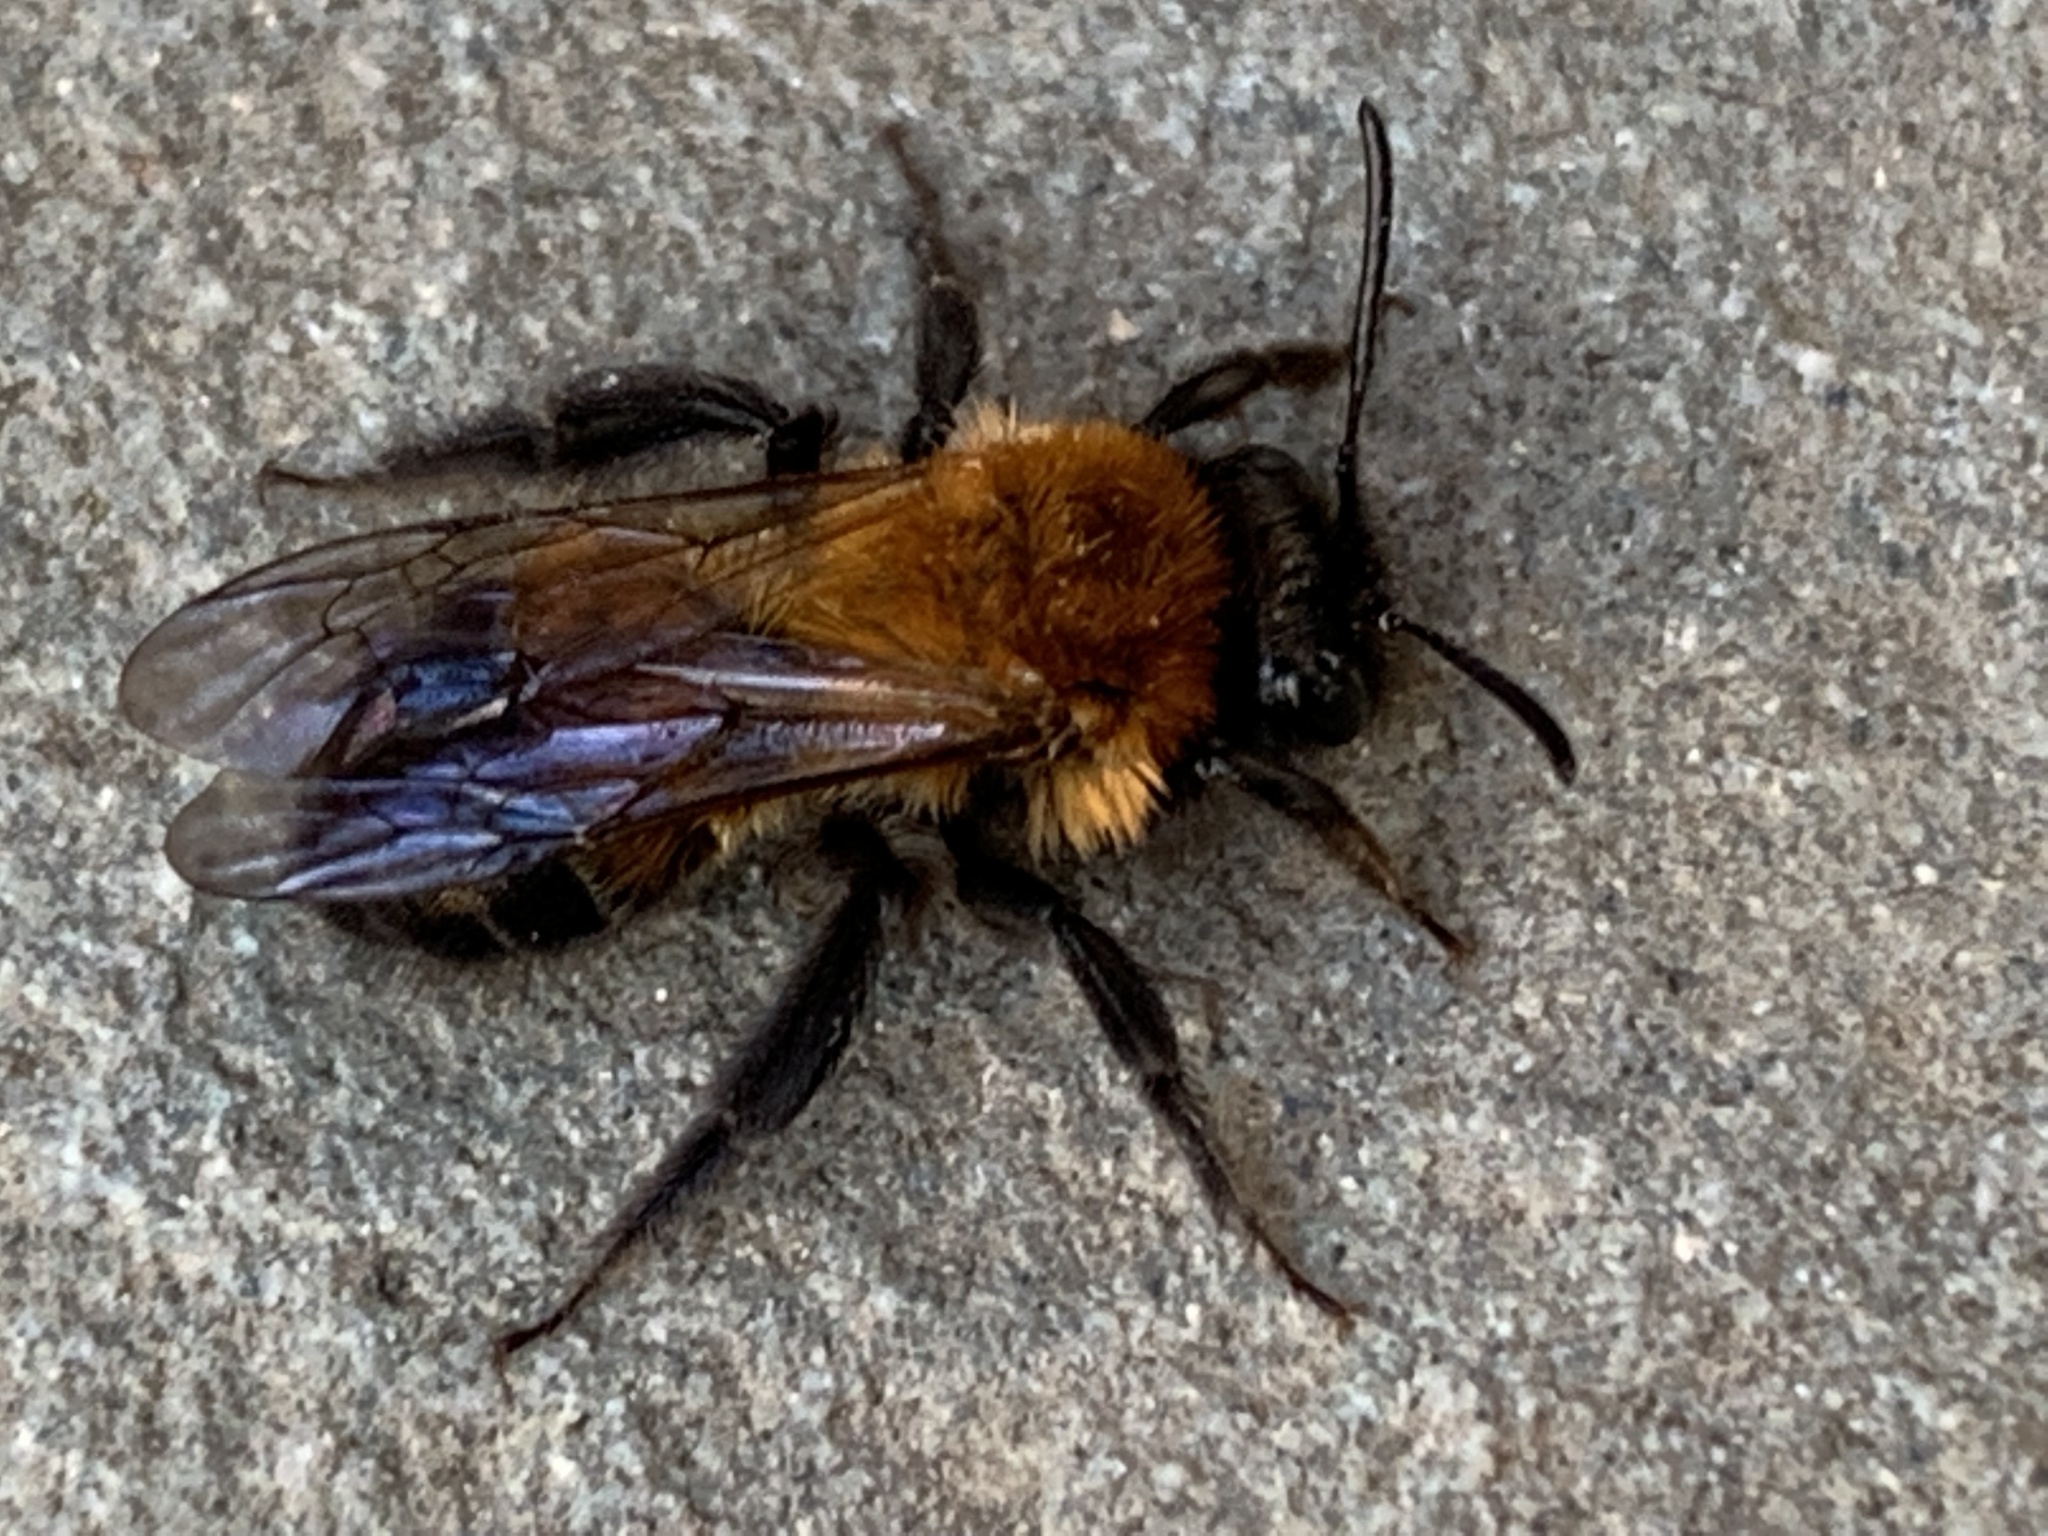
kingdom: Animalia
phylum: Arthropoda
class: Insecta
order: Hymenoptera
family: Andrenidae
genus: Andrena
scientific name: Andrena milwaukeensis
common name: Milwaukee mining bee
